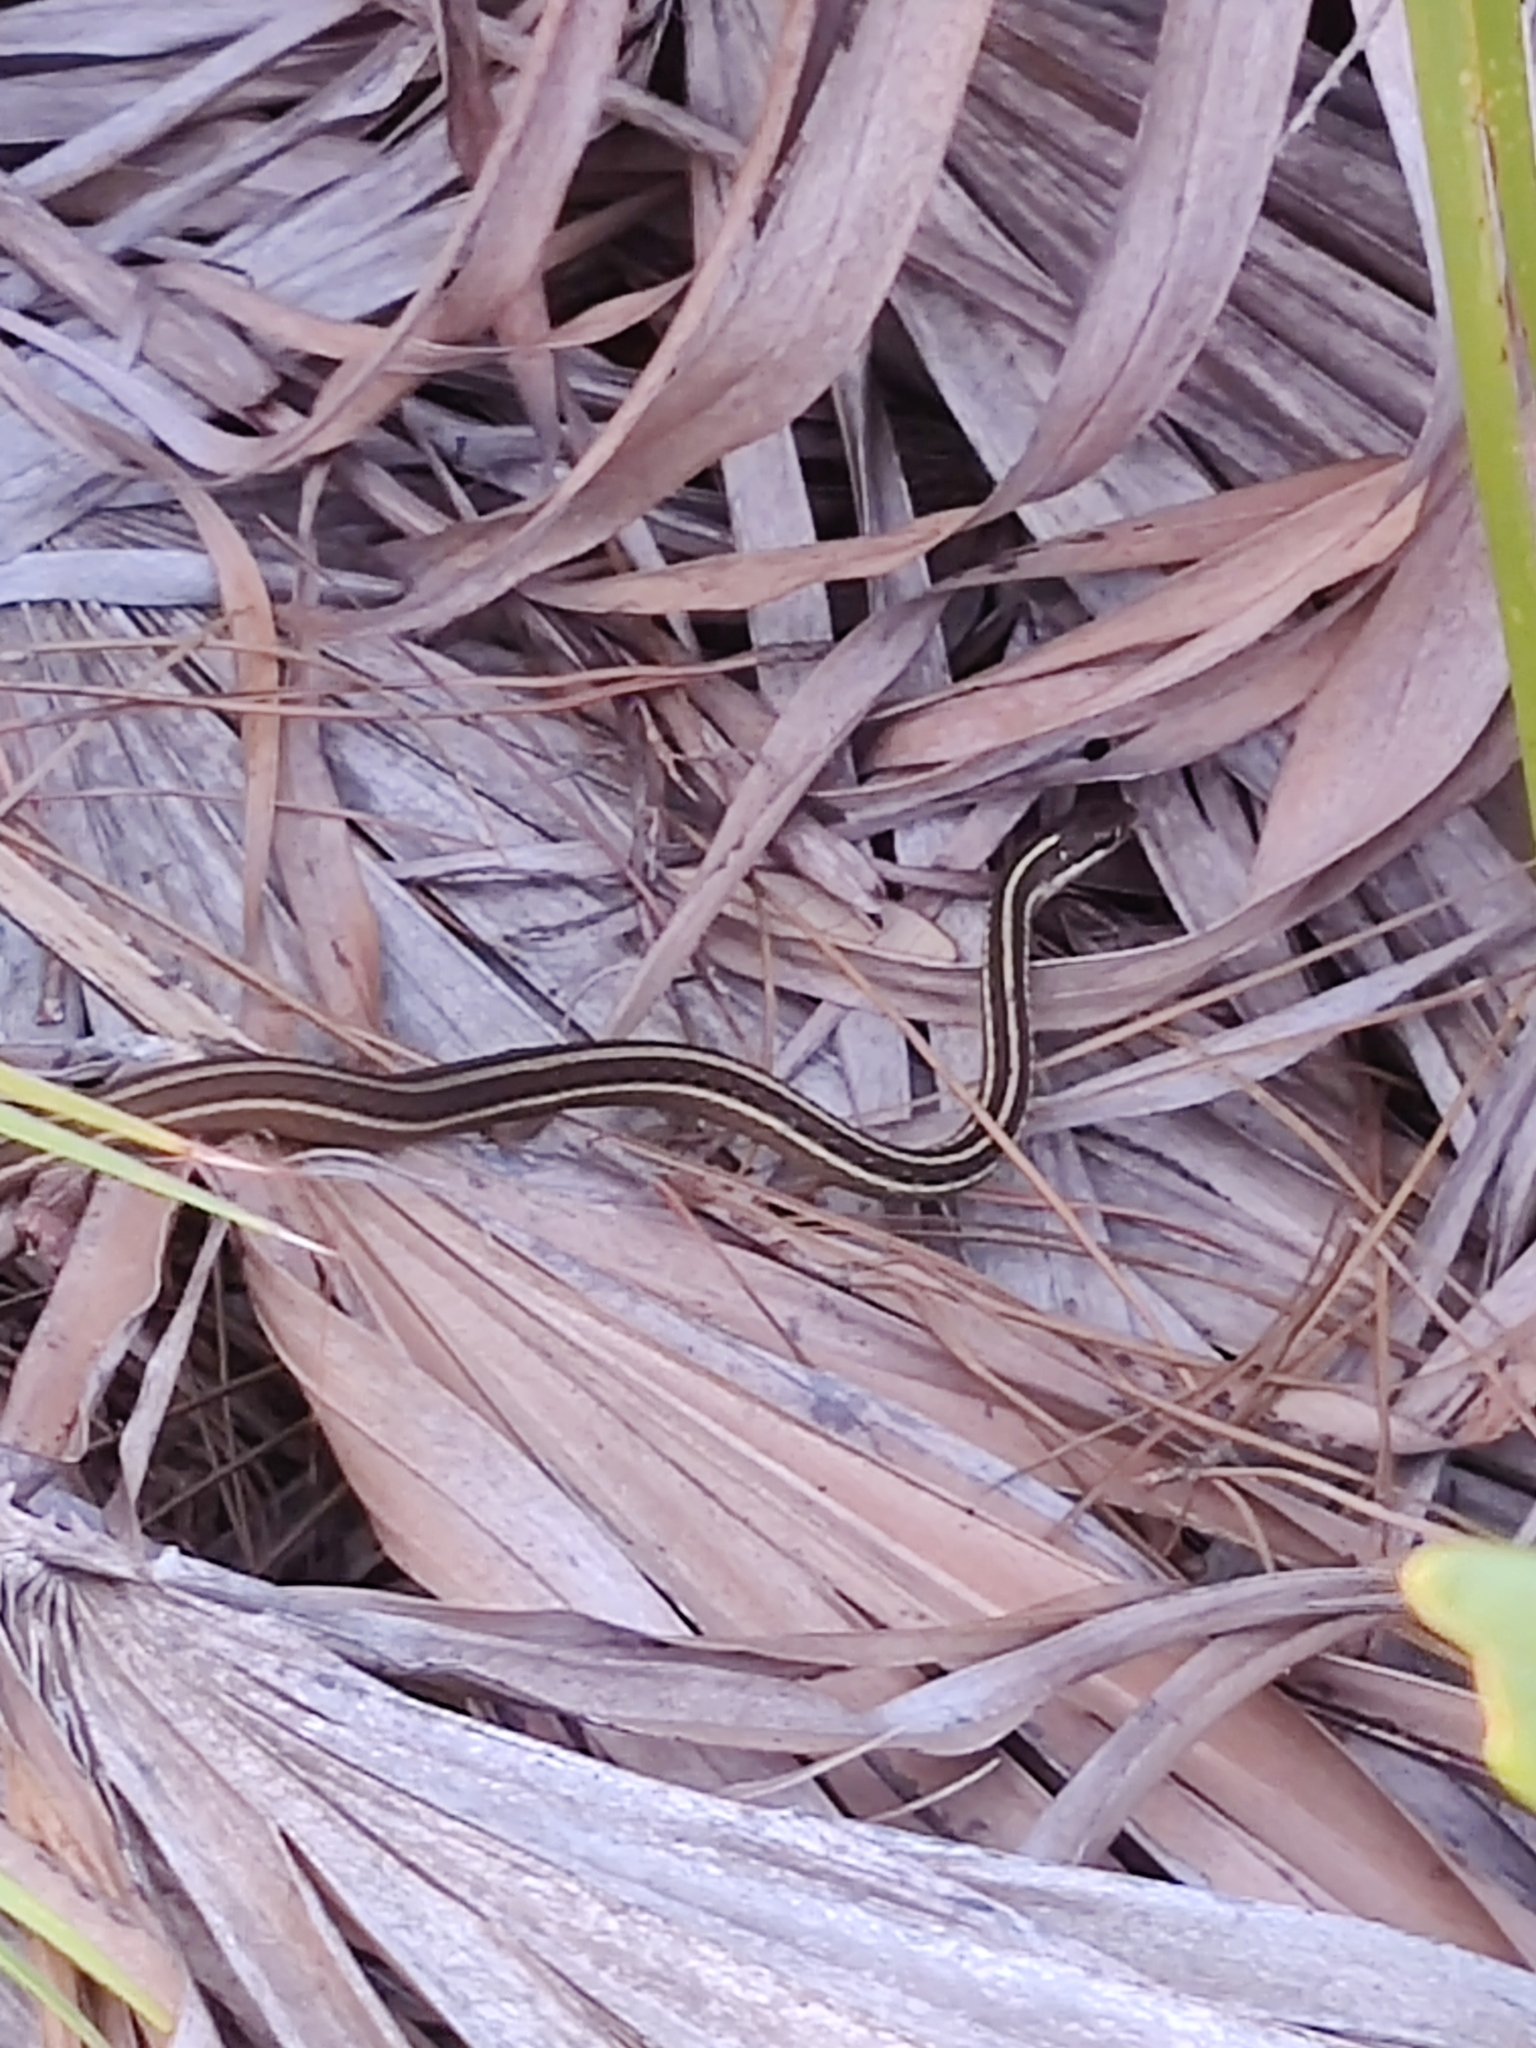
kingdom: Animalia
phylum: Chordata
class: Squamata
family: Colubridae
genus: Thamnophis
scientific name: Thamnophis saurita
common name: Eastern ribbonsnake
